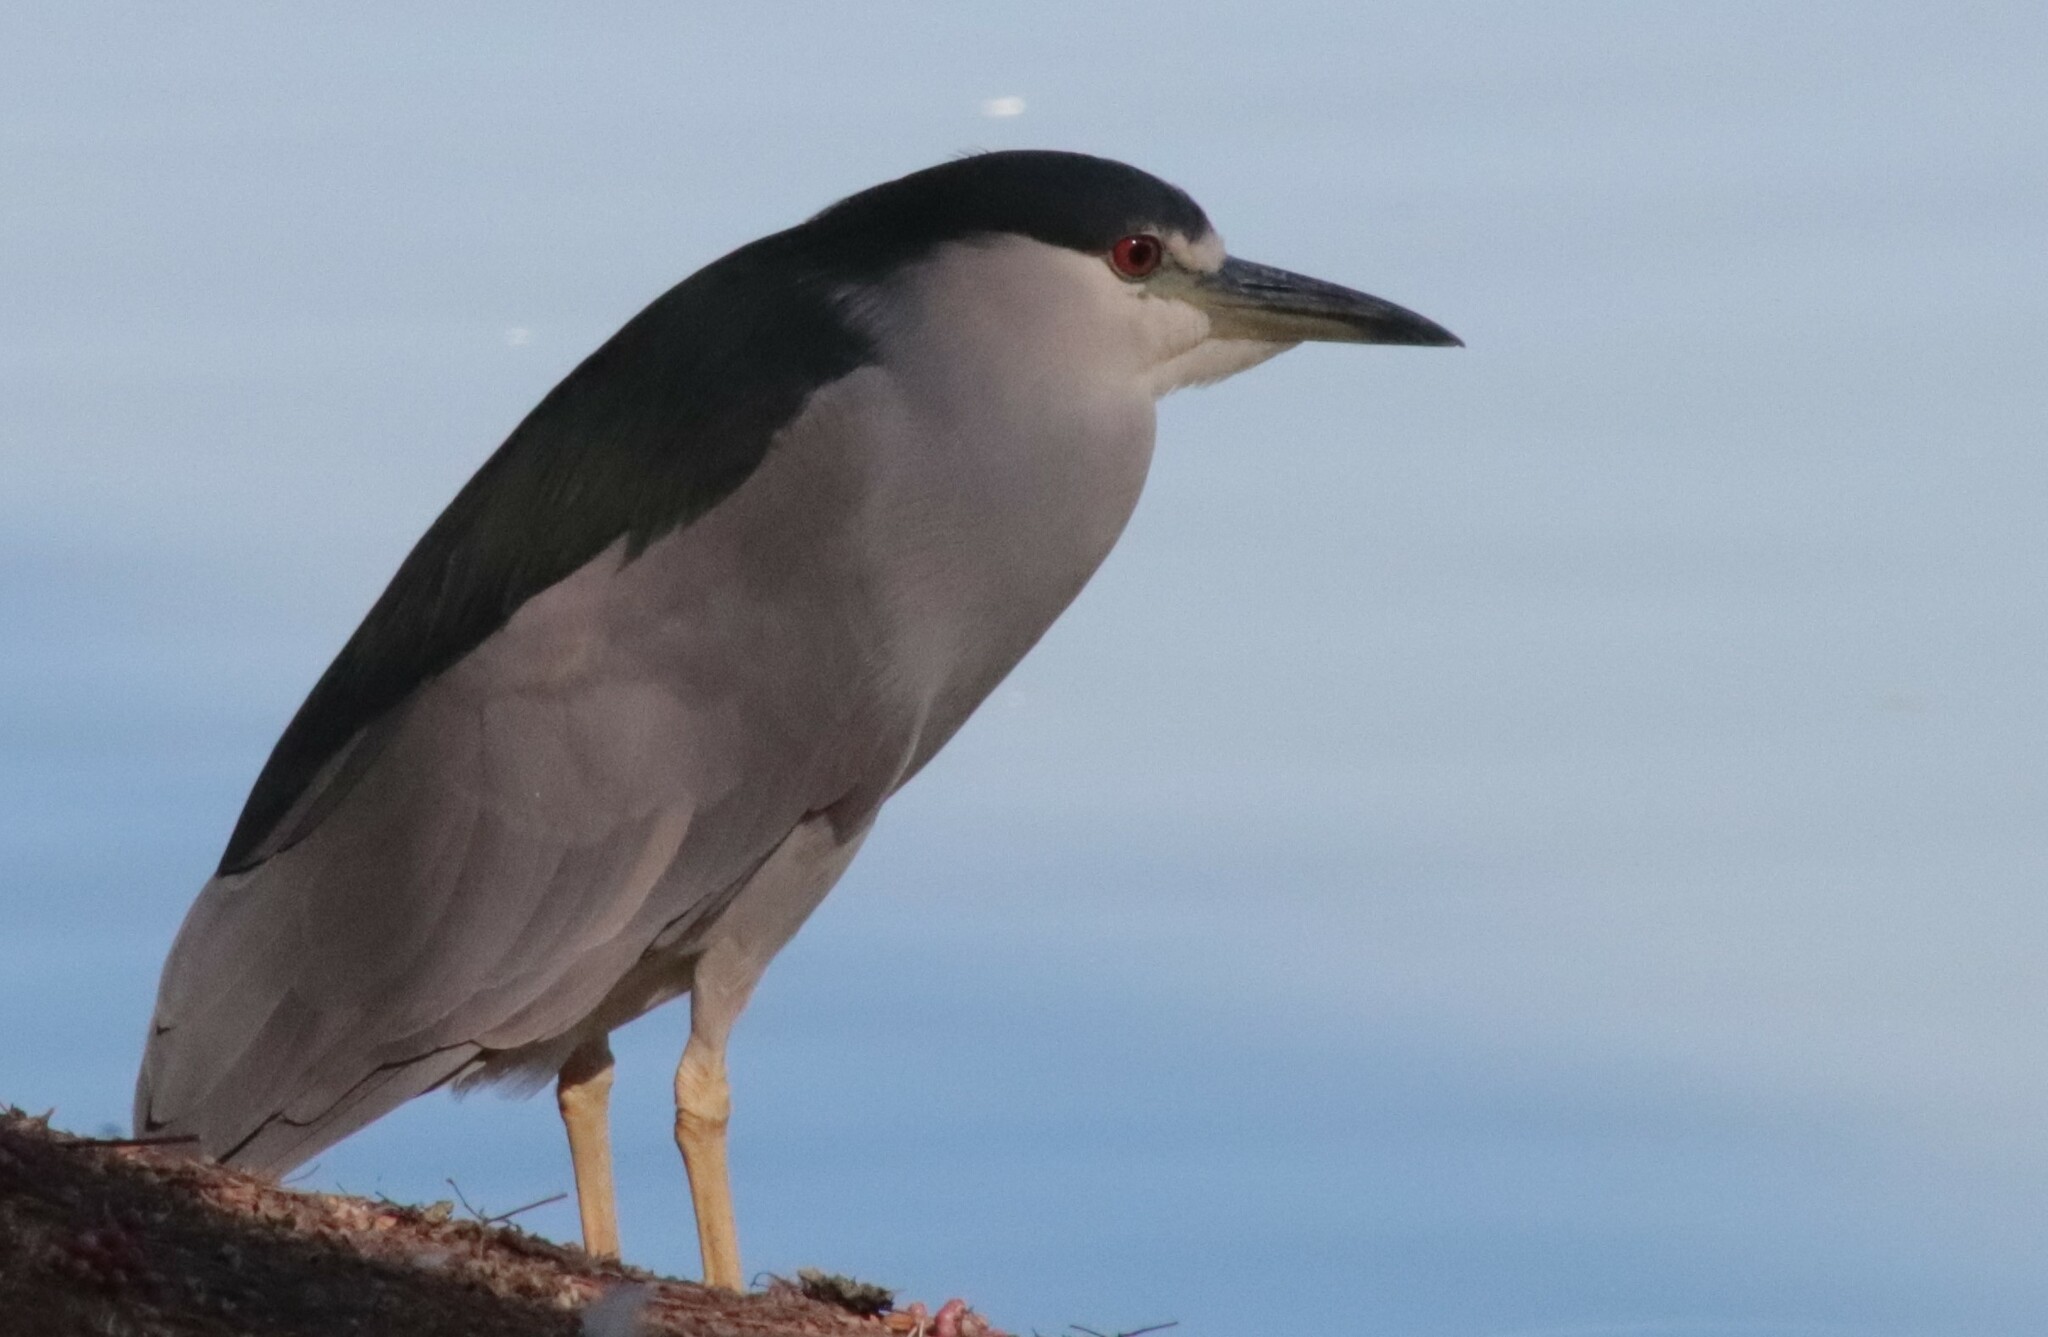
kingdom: Animalia
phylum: Chordata
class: Aves
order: Pelecaniformes
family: Ardeidae
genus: Nycticorax
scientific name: Nycticorax nycticorax
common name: Black-crowned night heron
